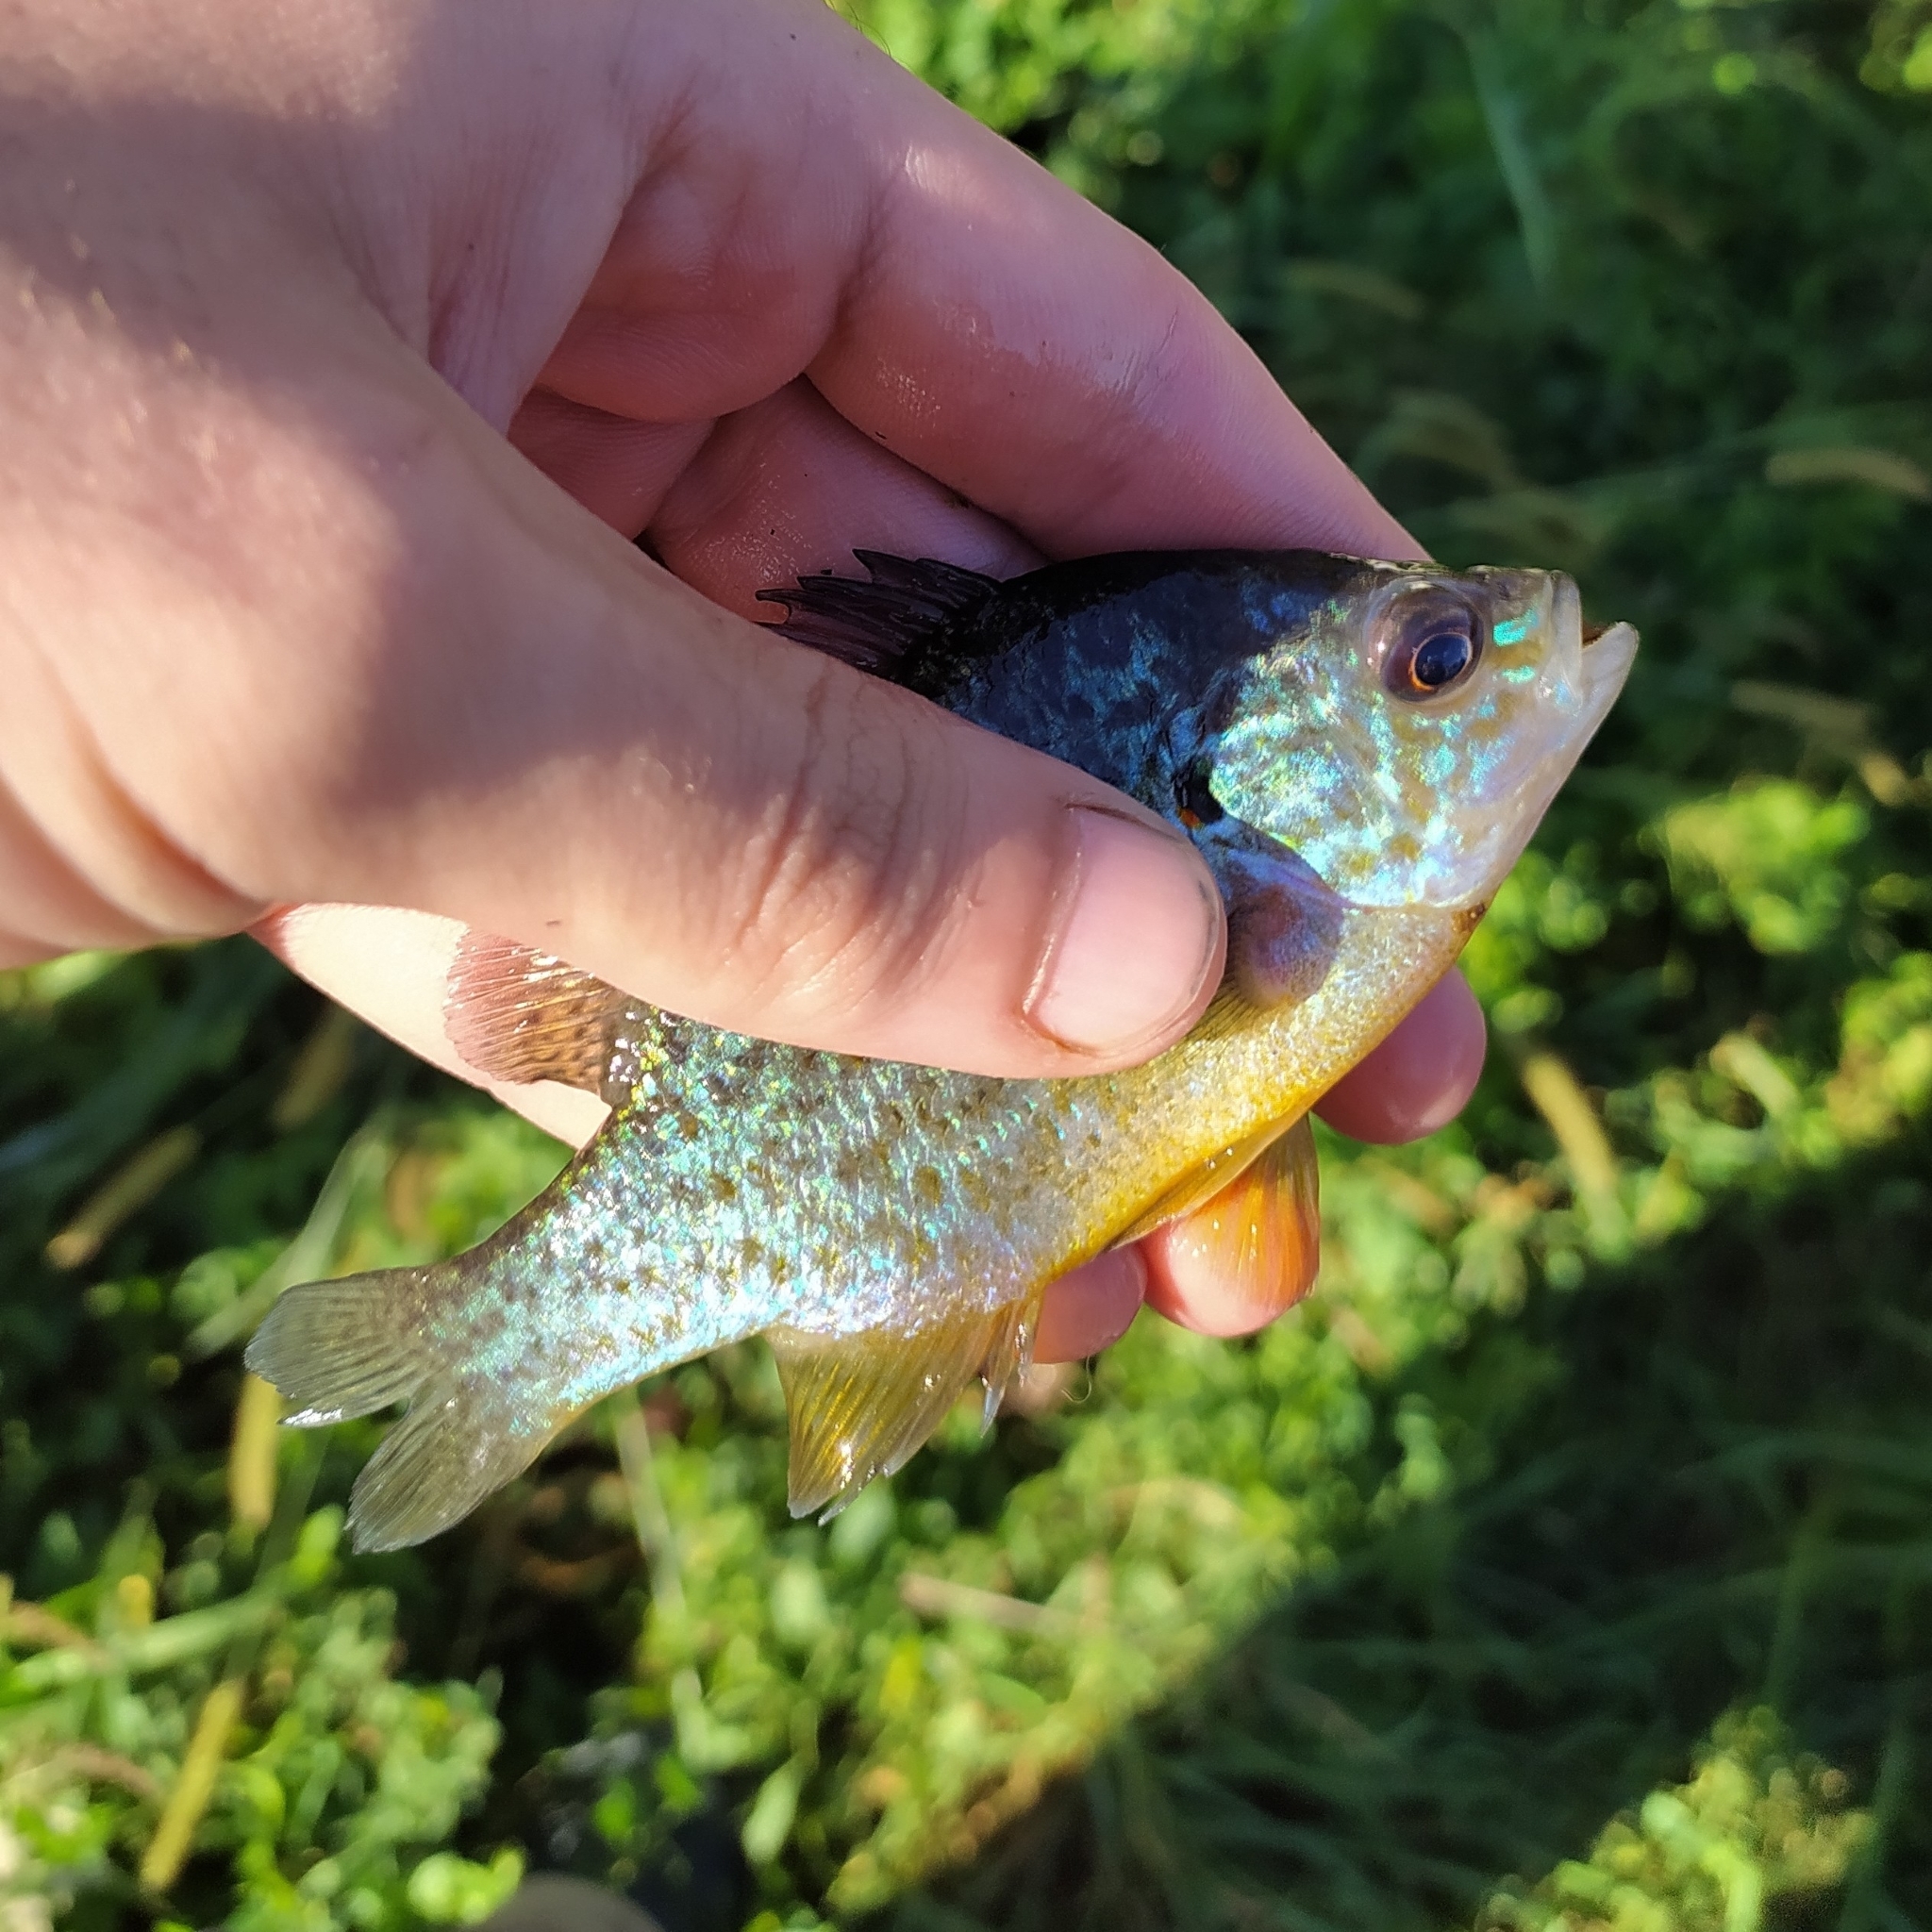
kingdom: Animalia
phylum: Chordata
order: Perciformes
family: Centrarchidae
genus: Lepomis
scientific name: Lepomis gibbosus
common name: Pumpkinseed
